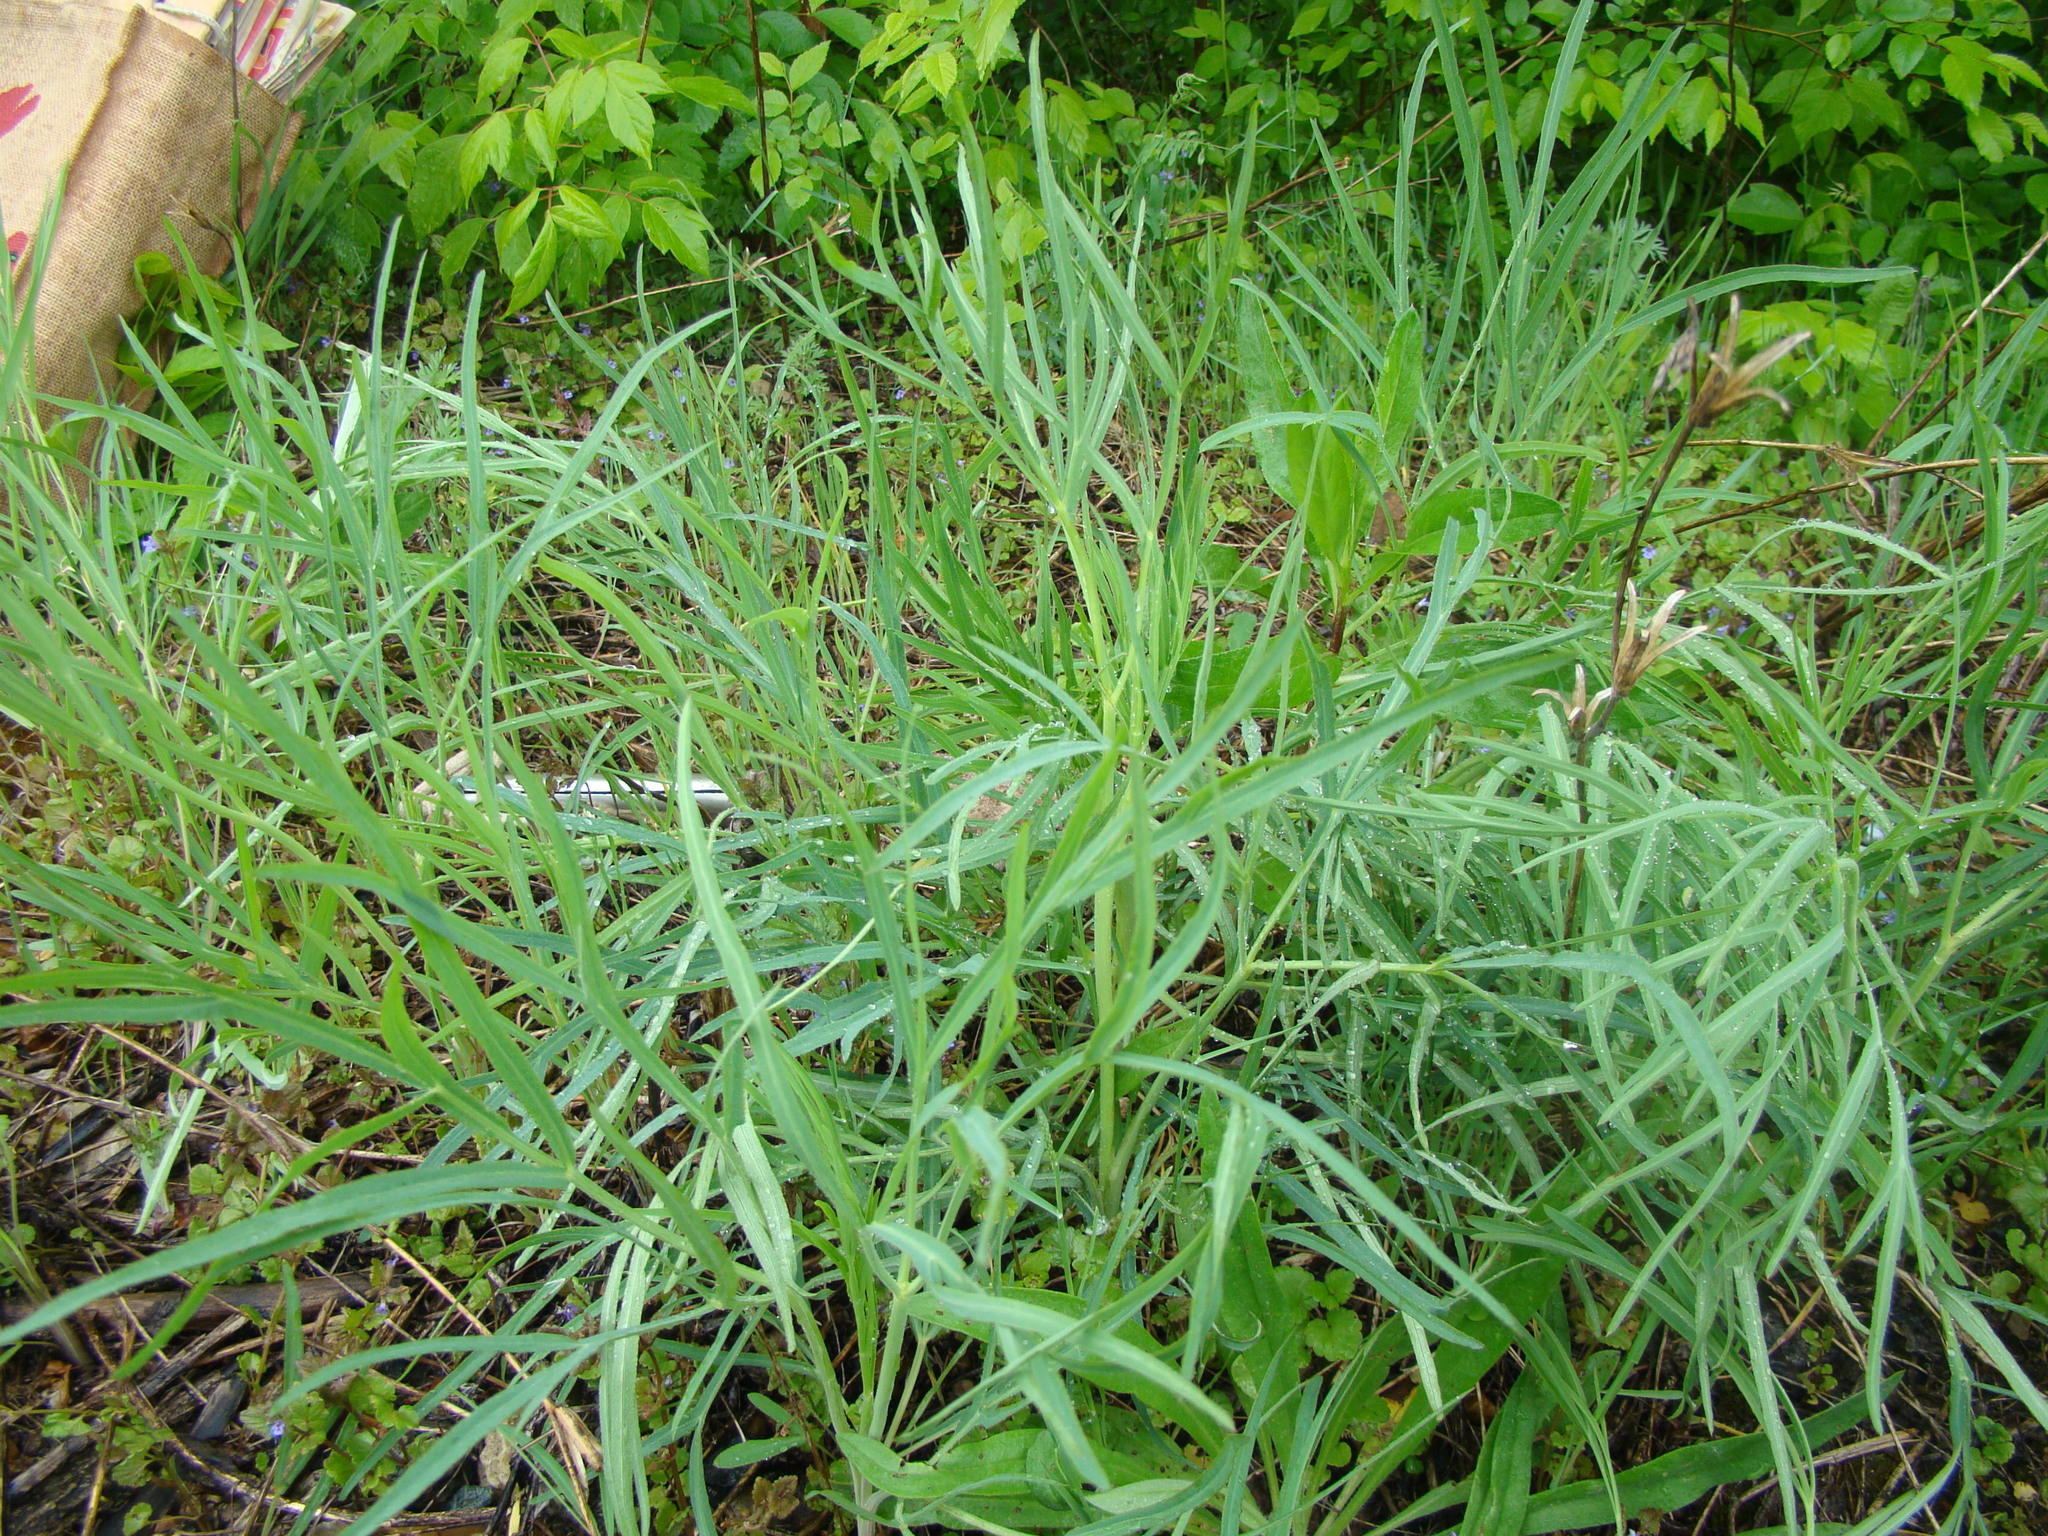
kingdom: Plantae
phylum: Tracheophyta
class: Magnoliopsida
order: Apiales
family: Apiaceae
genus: Falcaria
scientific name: Falcaria vulgaris
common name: Longleaf
